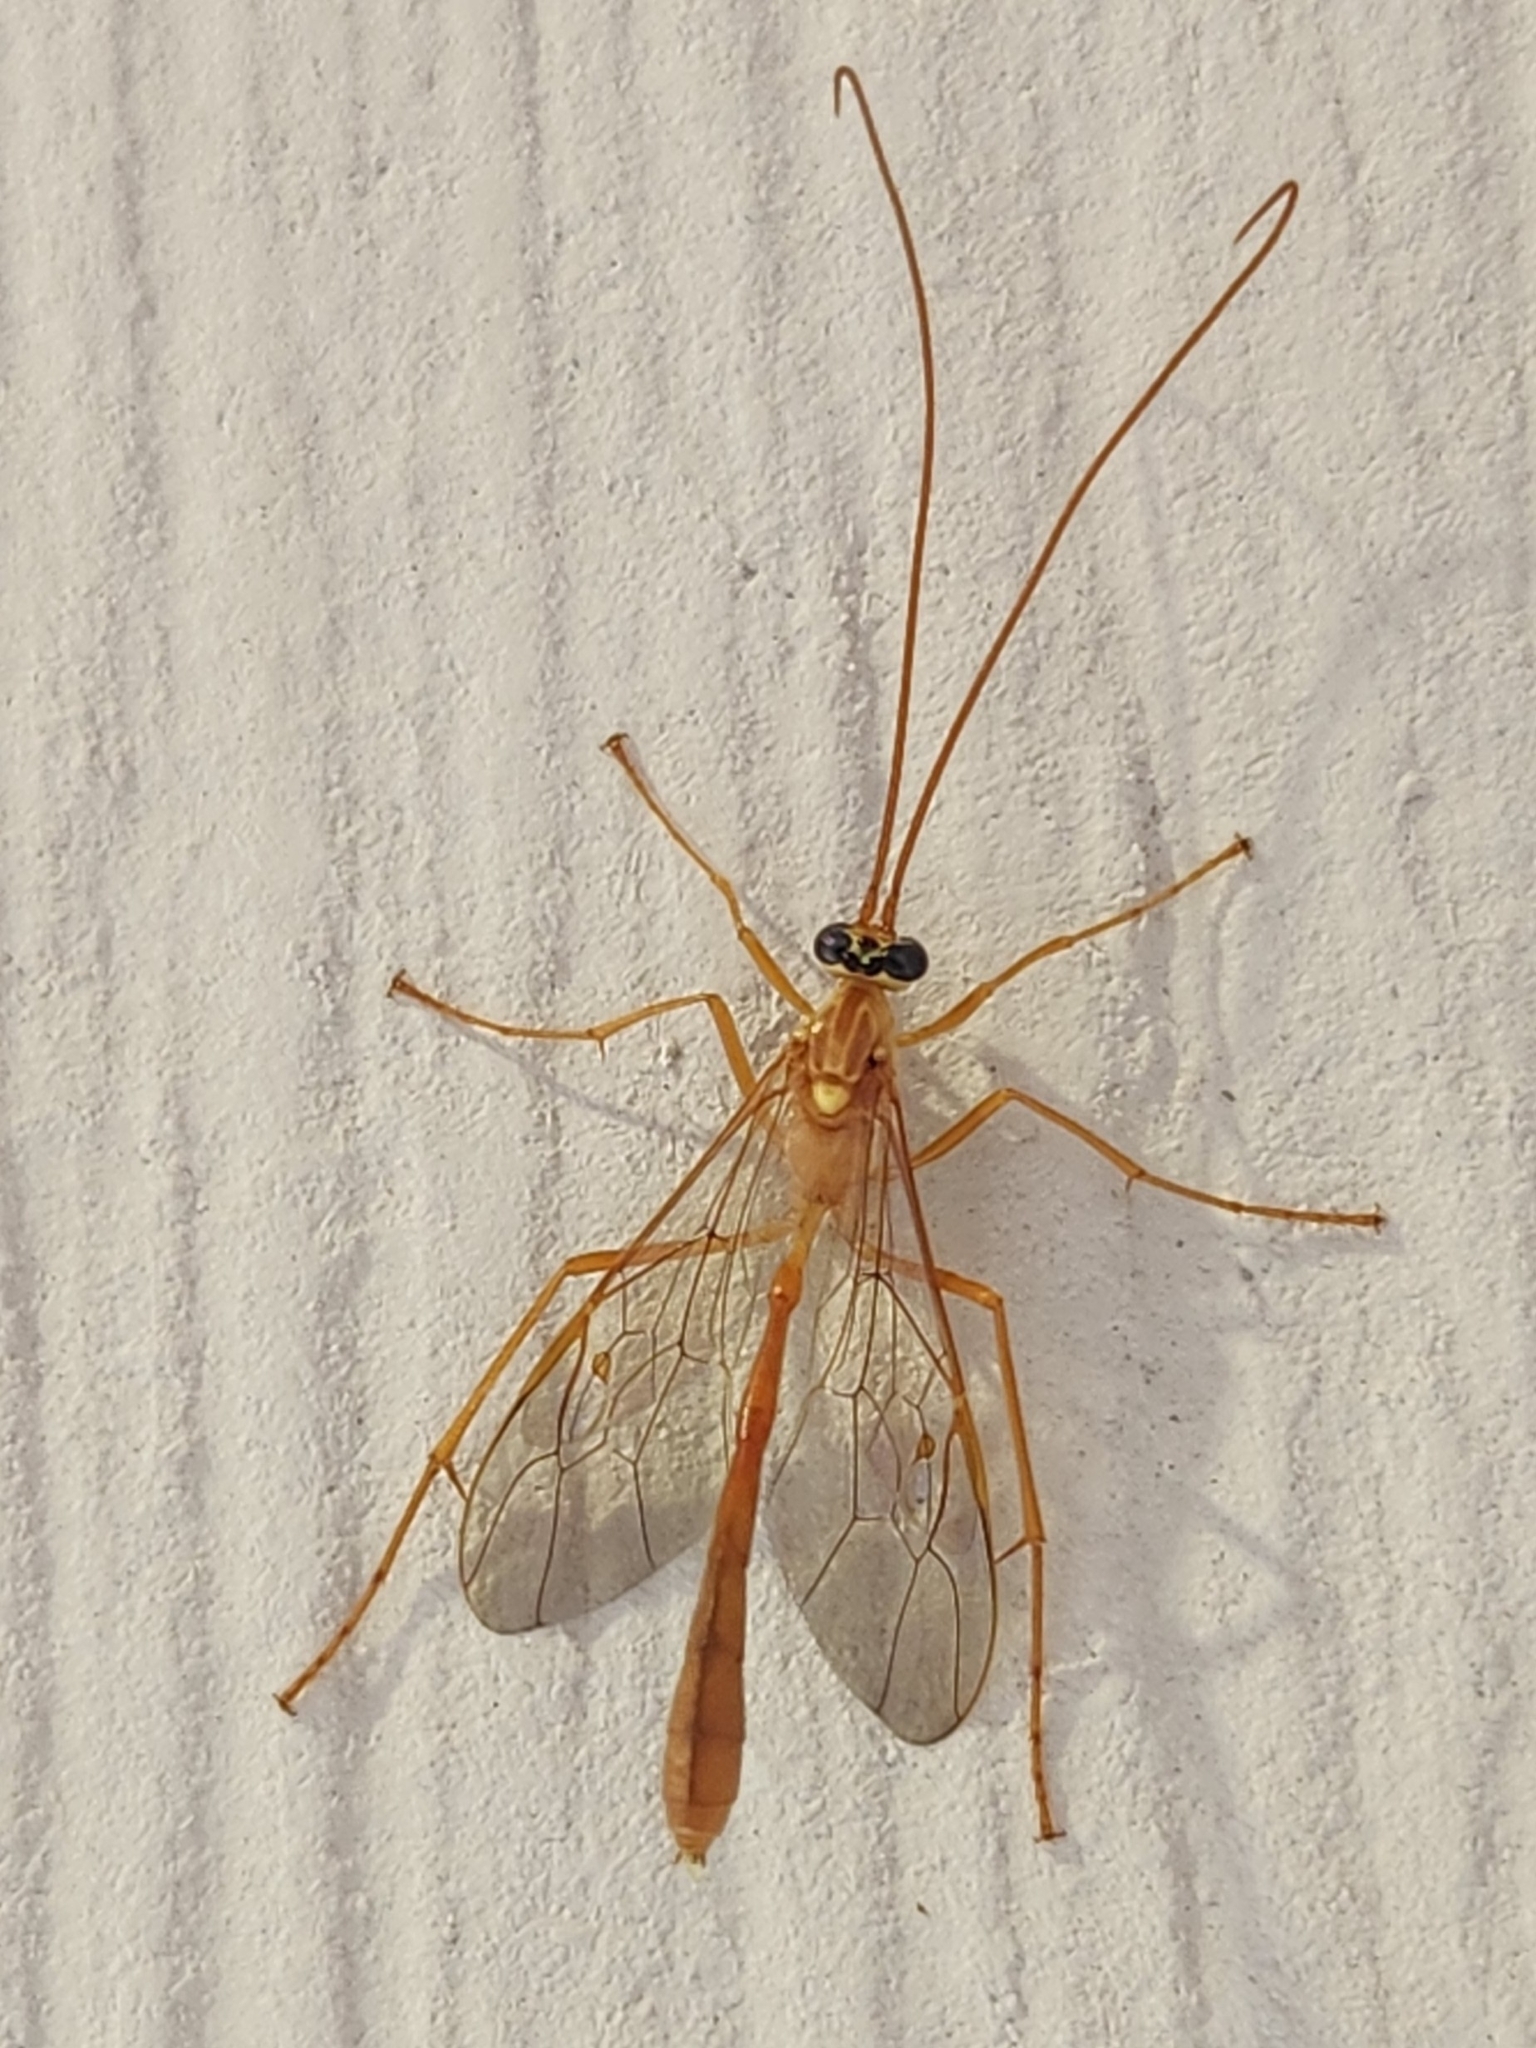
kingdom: Animalia
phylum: Arthropoda
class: Insecta
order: Hymenoptera
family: Ichneumonidae
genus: Enicospilus
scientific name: Enicospilus guatemalensis
